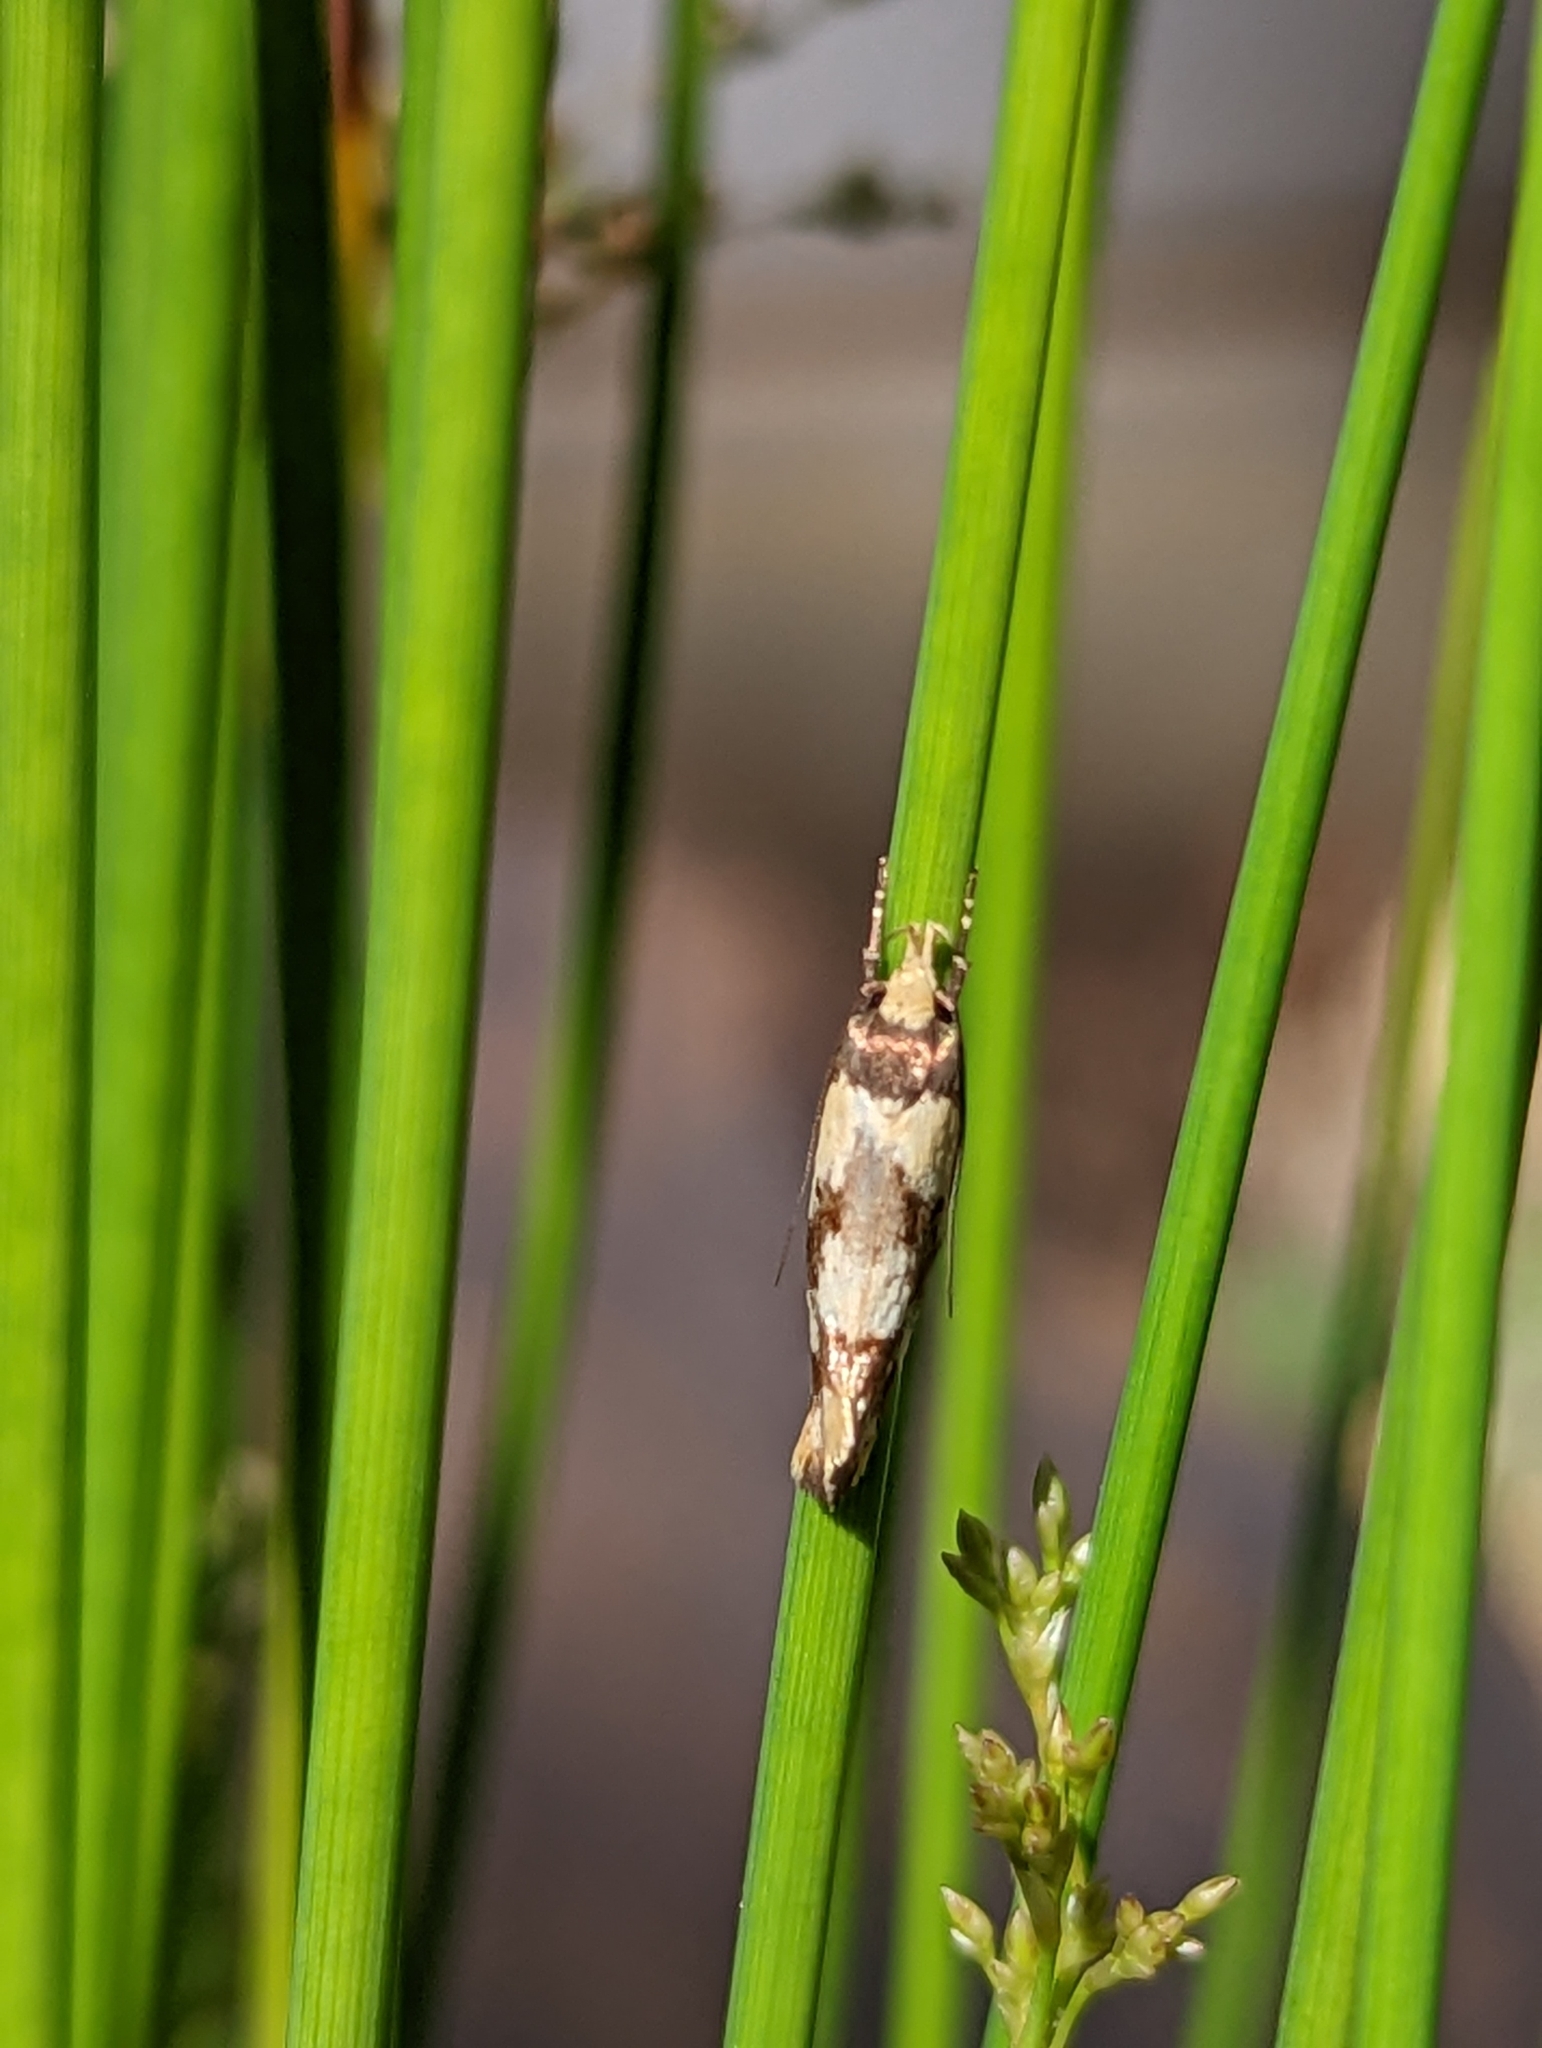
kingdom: Animalia
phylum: Arthropoda
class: Insecta
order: Lepidoptera
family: Oecophoridae
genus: Eulechria
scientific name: Eulechria marmorata
